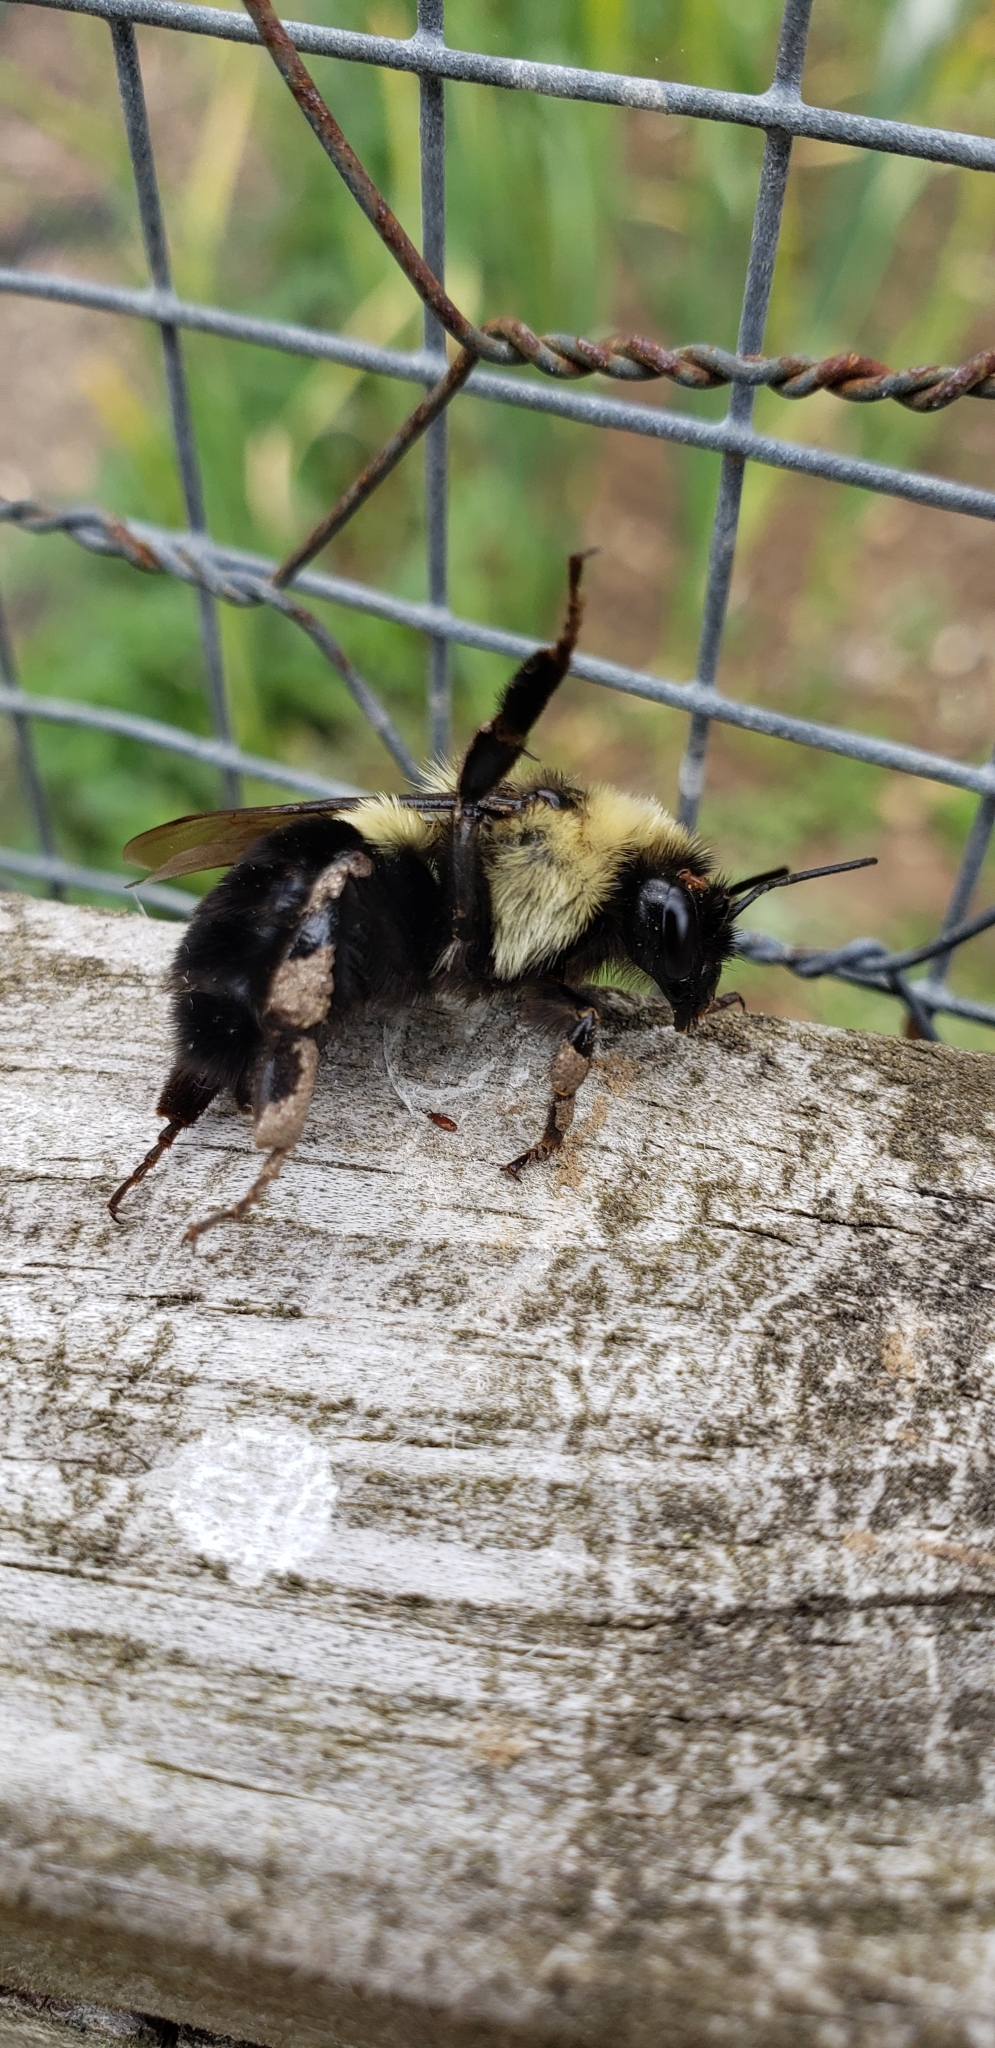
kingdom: Animalia
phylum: Arthropoda
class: Insecta
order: Hymenoptera
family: Apidae
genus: Bombus
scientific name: Bombus impatiens
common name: Common eastern bumble bee
